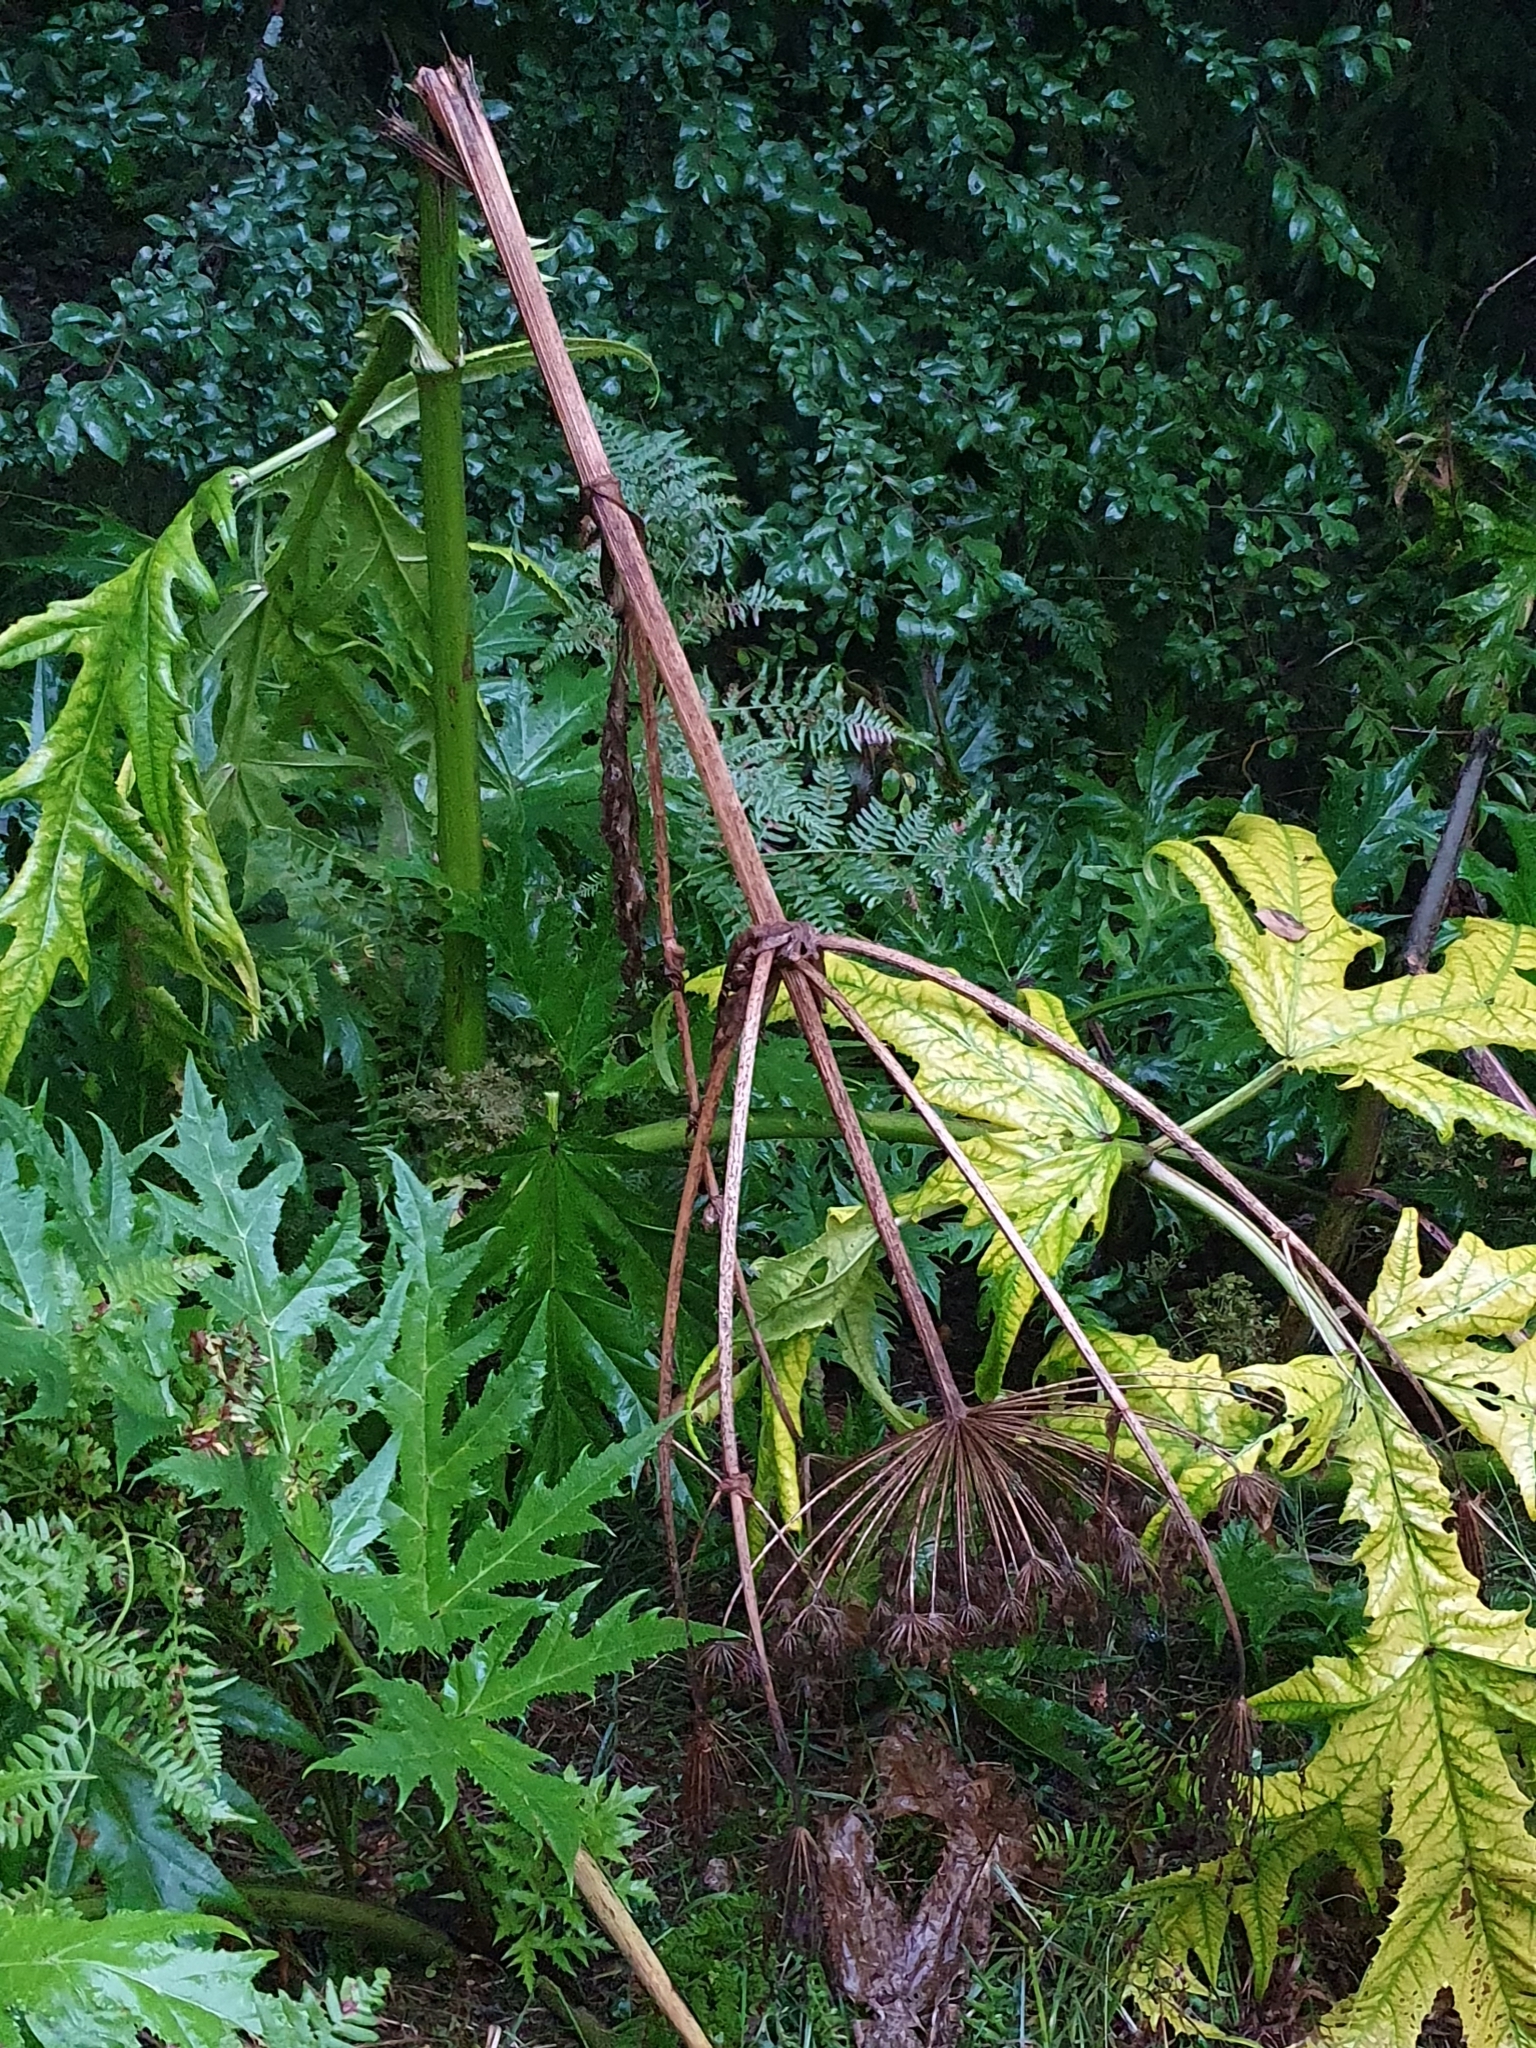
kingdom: Plantae
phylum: Tracheophyta
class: Magnoliopsida
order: Apiales
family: Apiaceae
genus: Heracleum
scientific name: Heracleum mantegazzianum
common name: Giant hogweed
